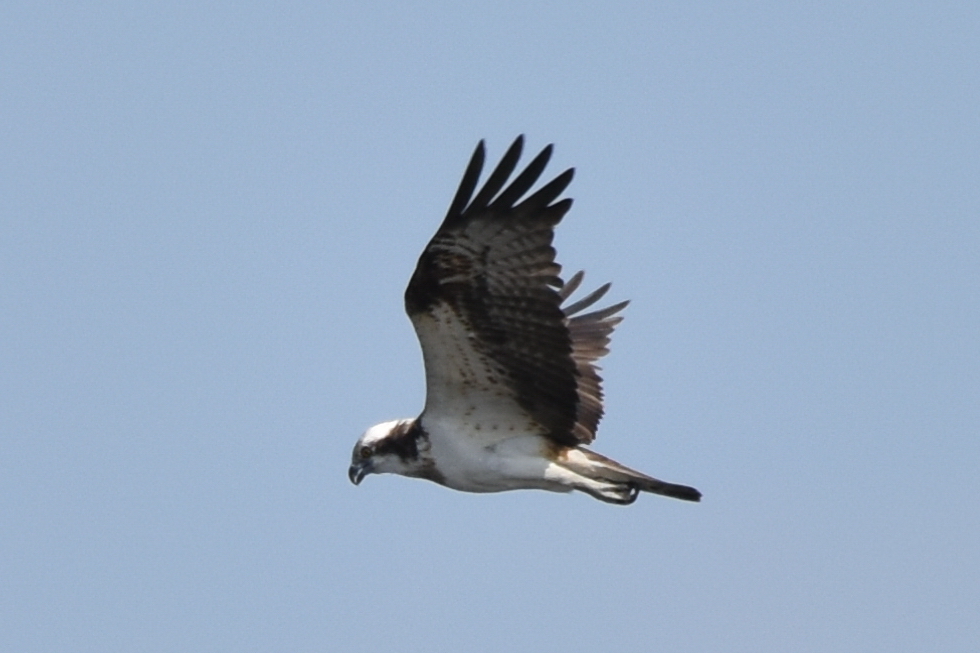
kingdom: Animalia
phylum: Chordata
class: Aves
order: Accipitriformes
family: Pandionidae
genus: Pandion
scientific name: Pandion haliaetus
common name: Osprey
